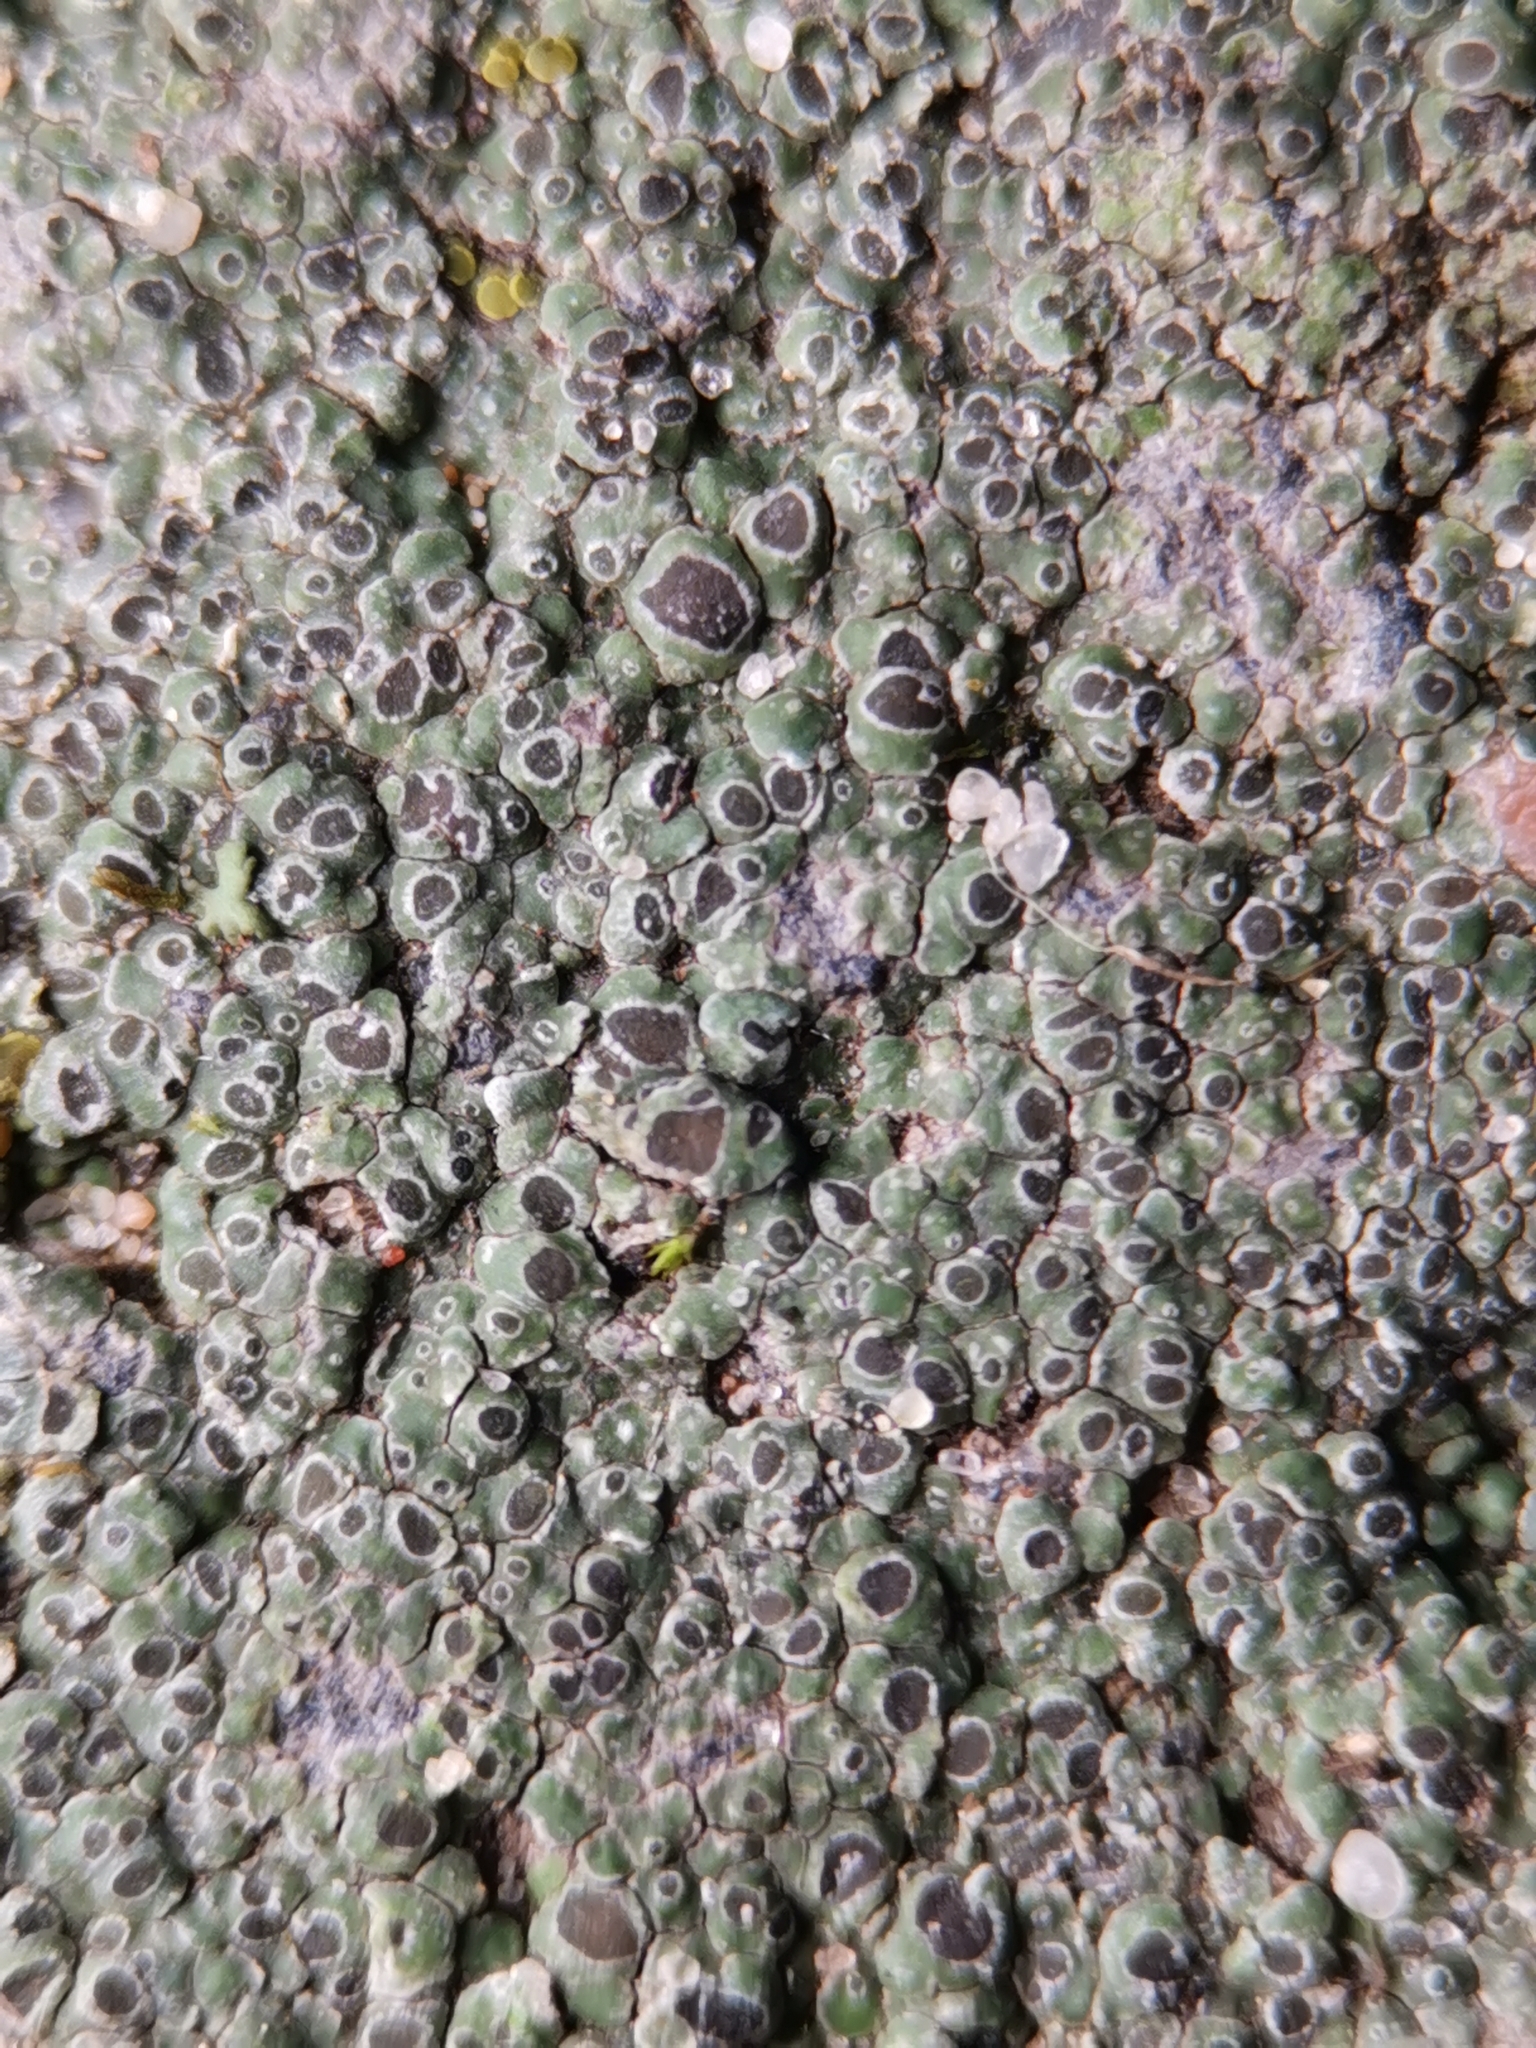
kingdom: Fungi
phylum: Ascomycota
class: Lecanoromycetes
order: Pertusariales
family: Megasporaceae
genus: Circinaria
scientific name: Circinaria contorta
